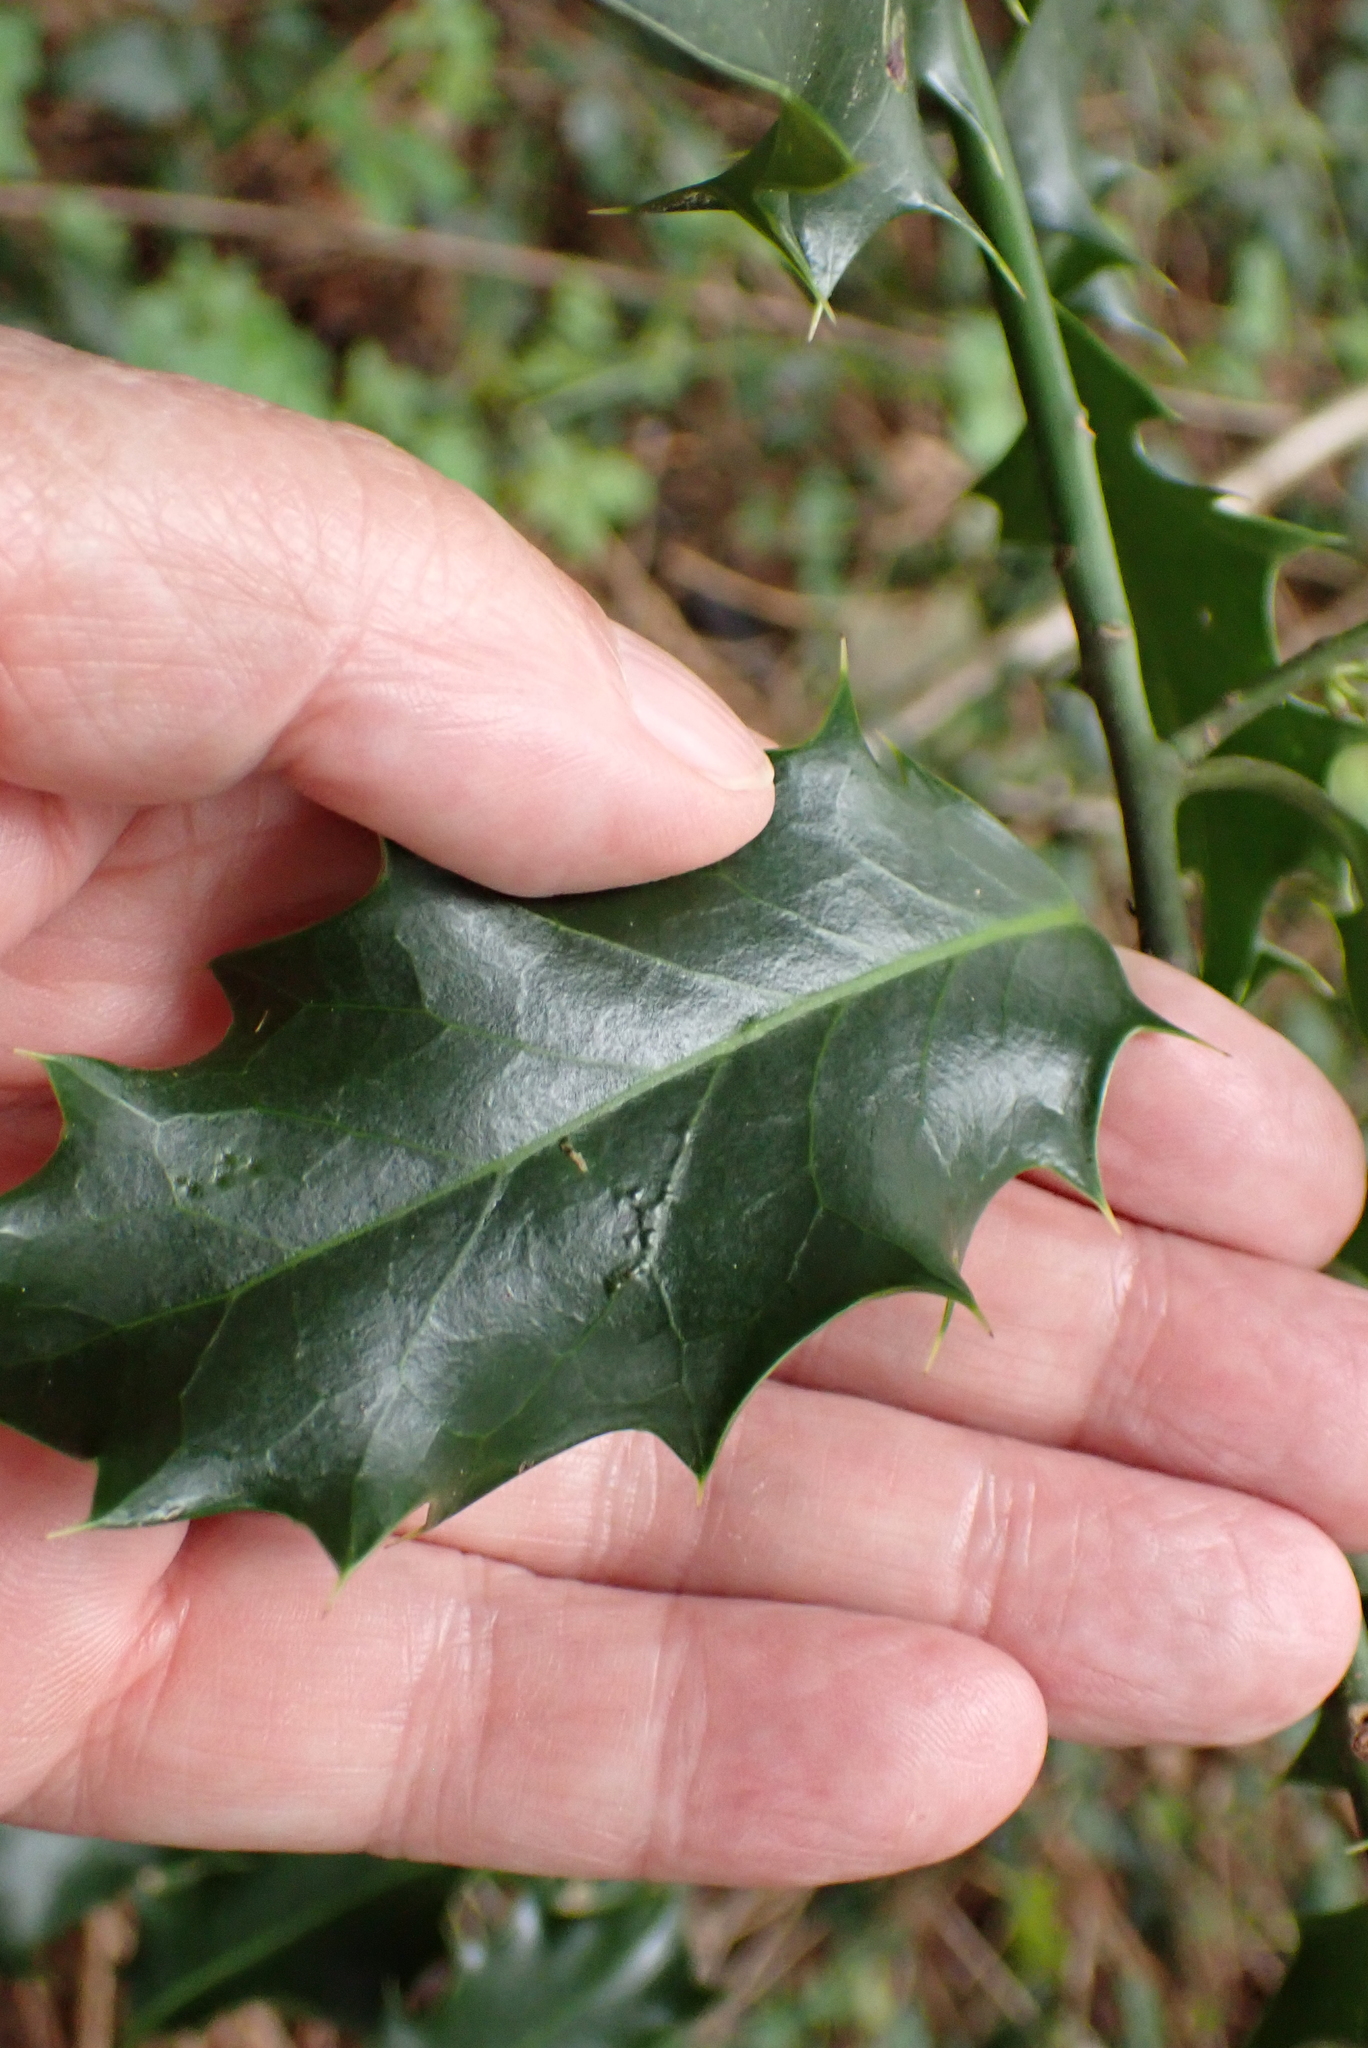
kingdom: Plantae
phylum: Tracheophyta
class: Magnoliopsida
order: Aquifoliales
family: Aquifoliaceae
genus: Ilex
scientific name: Ilex aquifolium
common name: English holly
